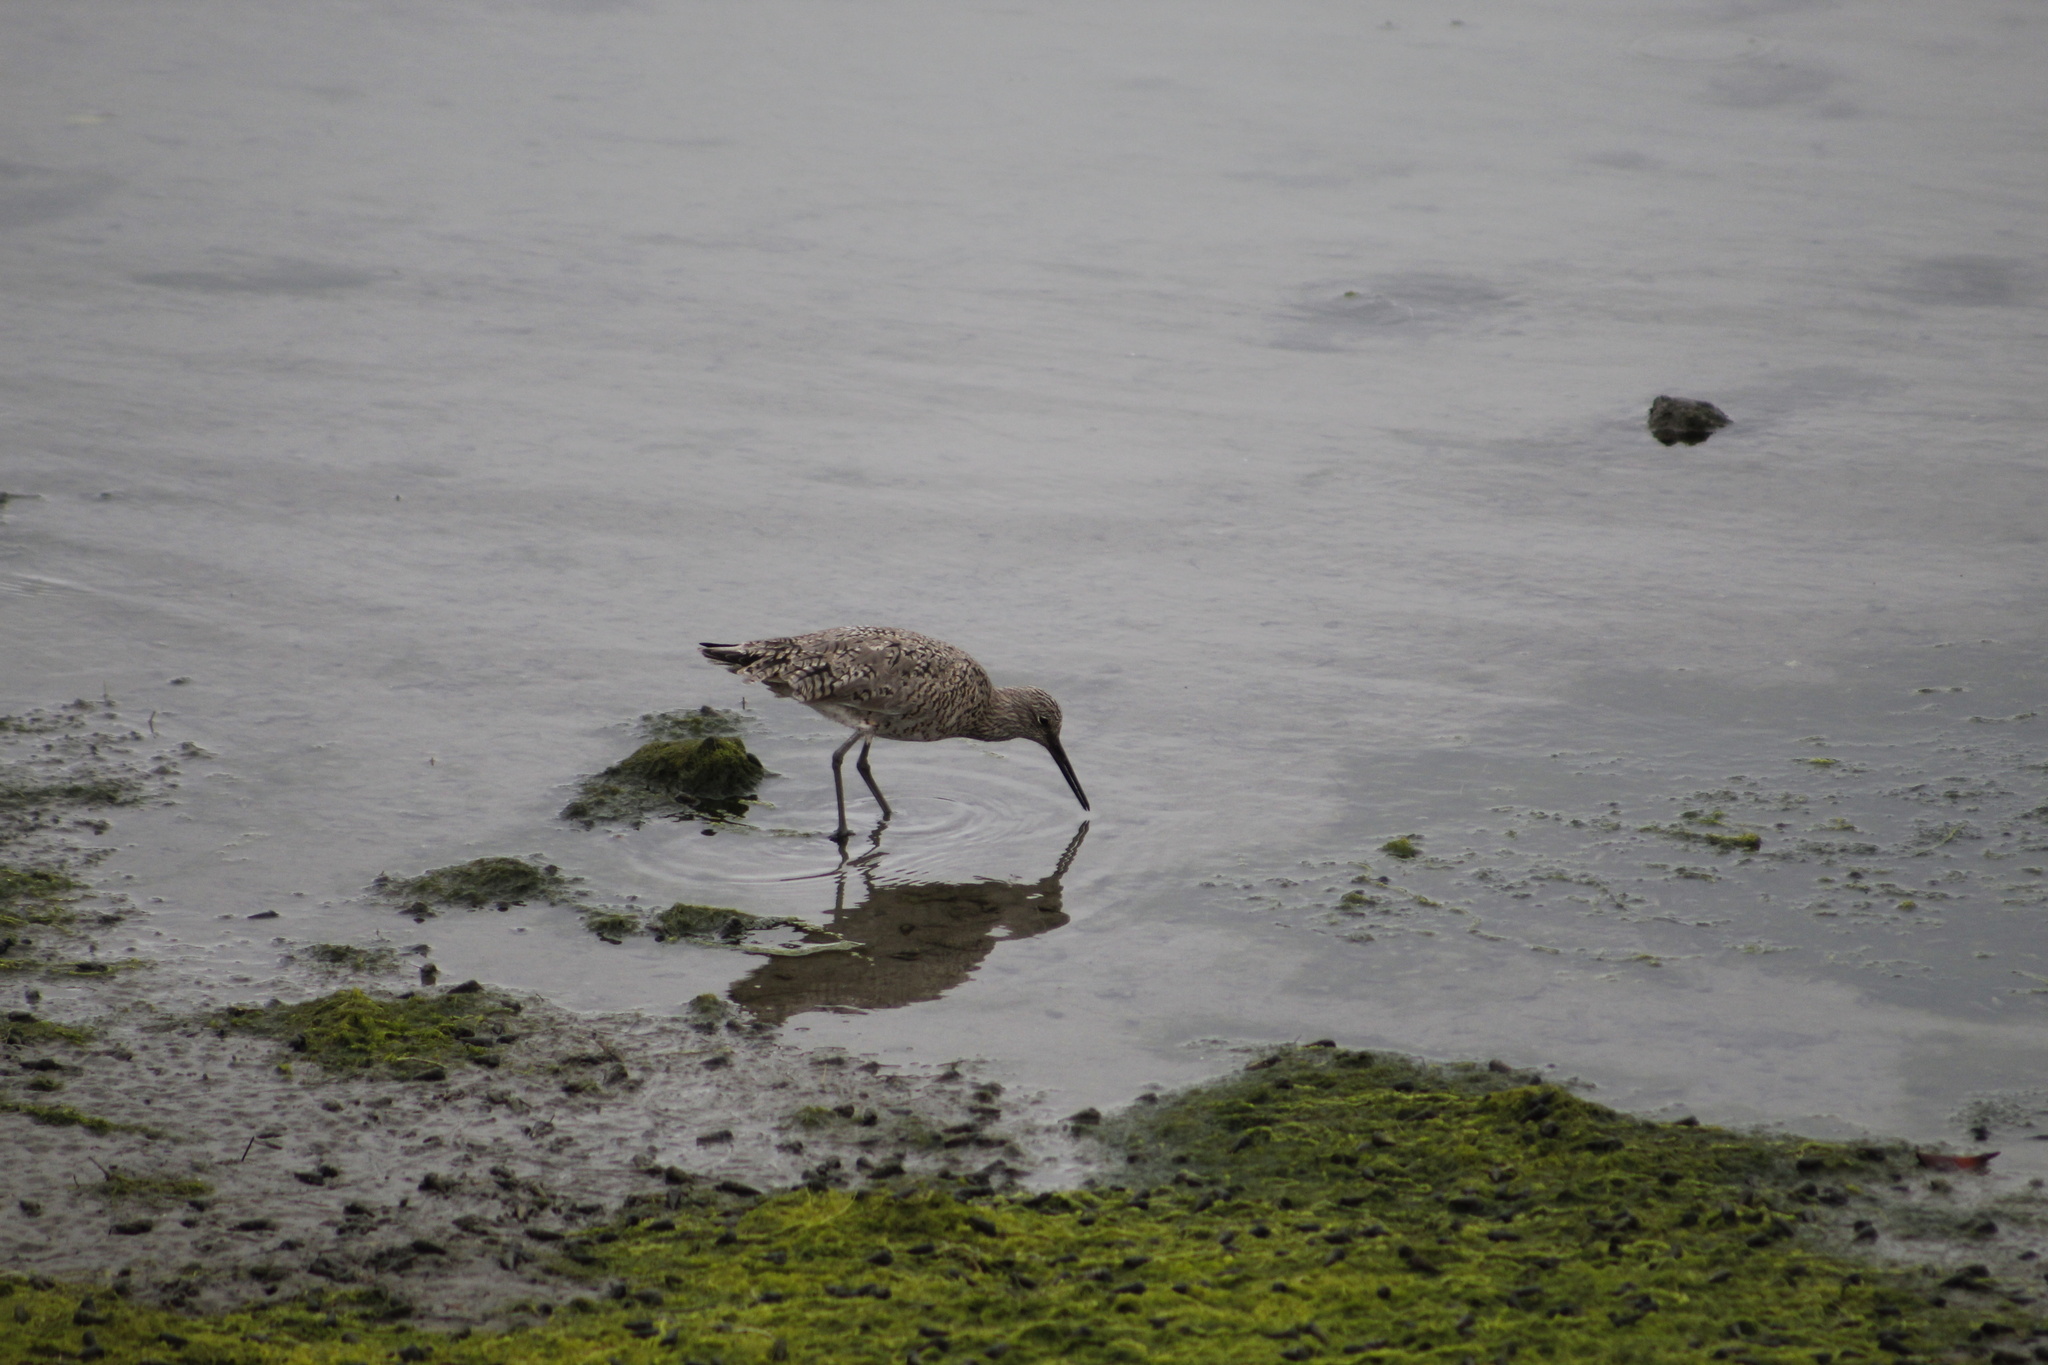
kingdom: Animalia
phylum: Chordata
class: Aves
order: Charadriiformes
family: Scolopacidae
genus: Tringa
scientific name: Tringa semipalmata
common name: Willet
